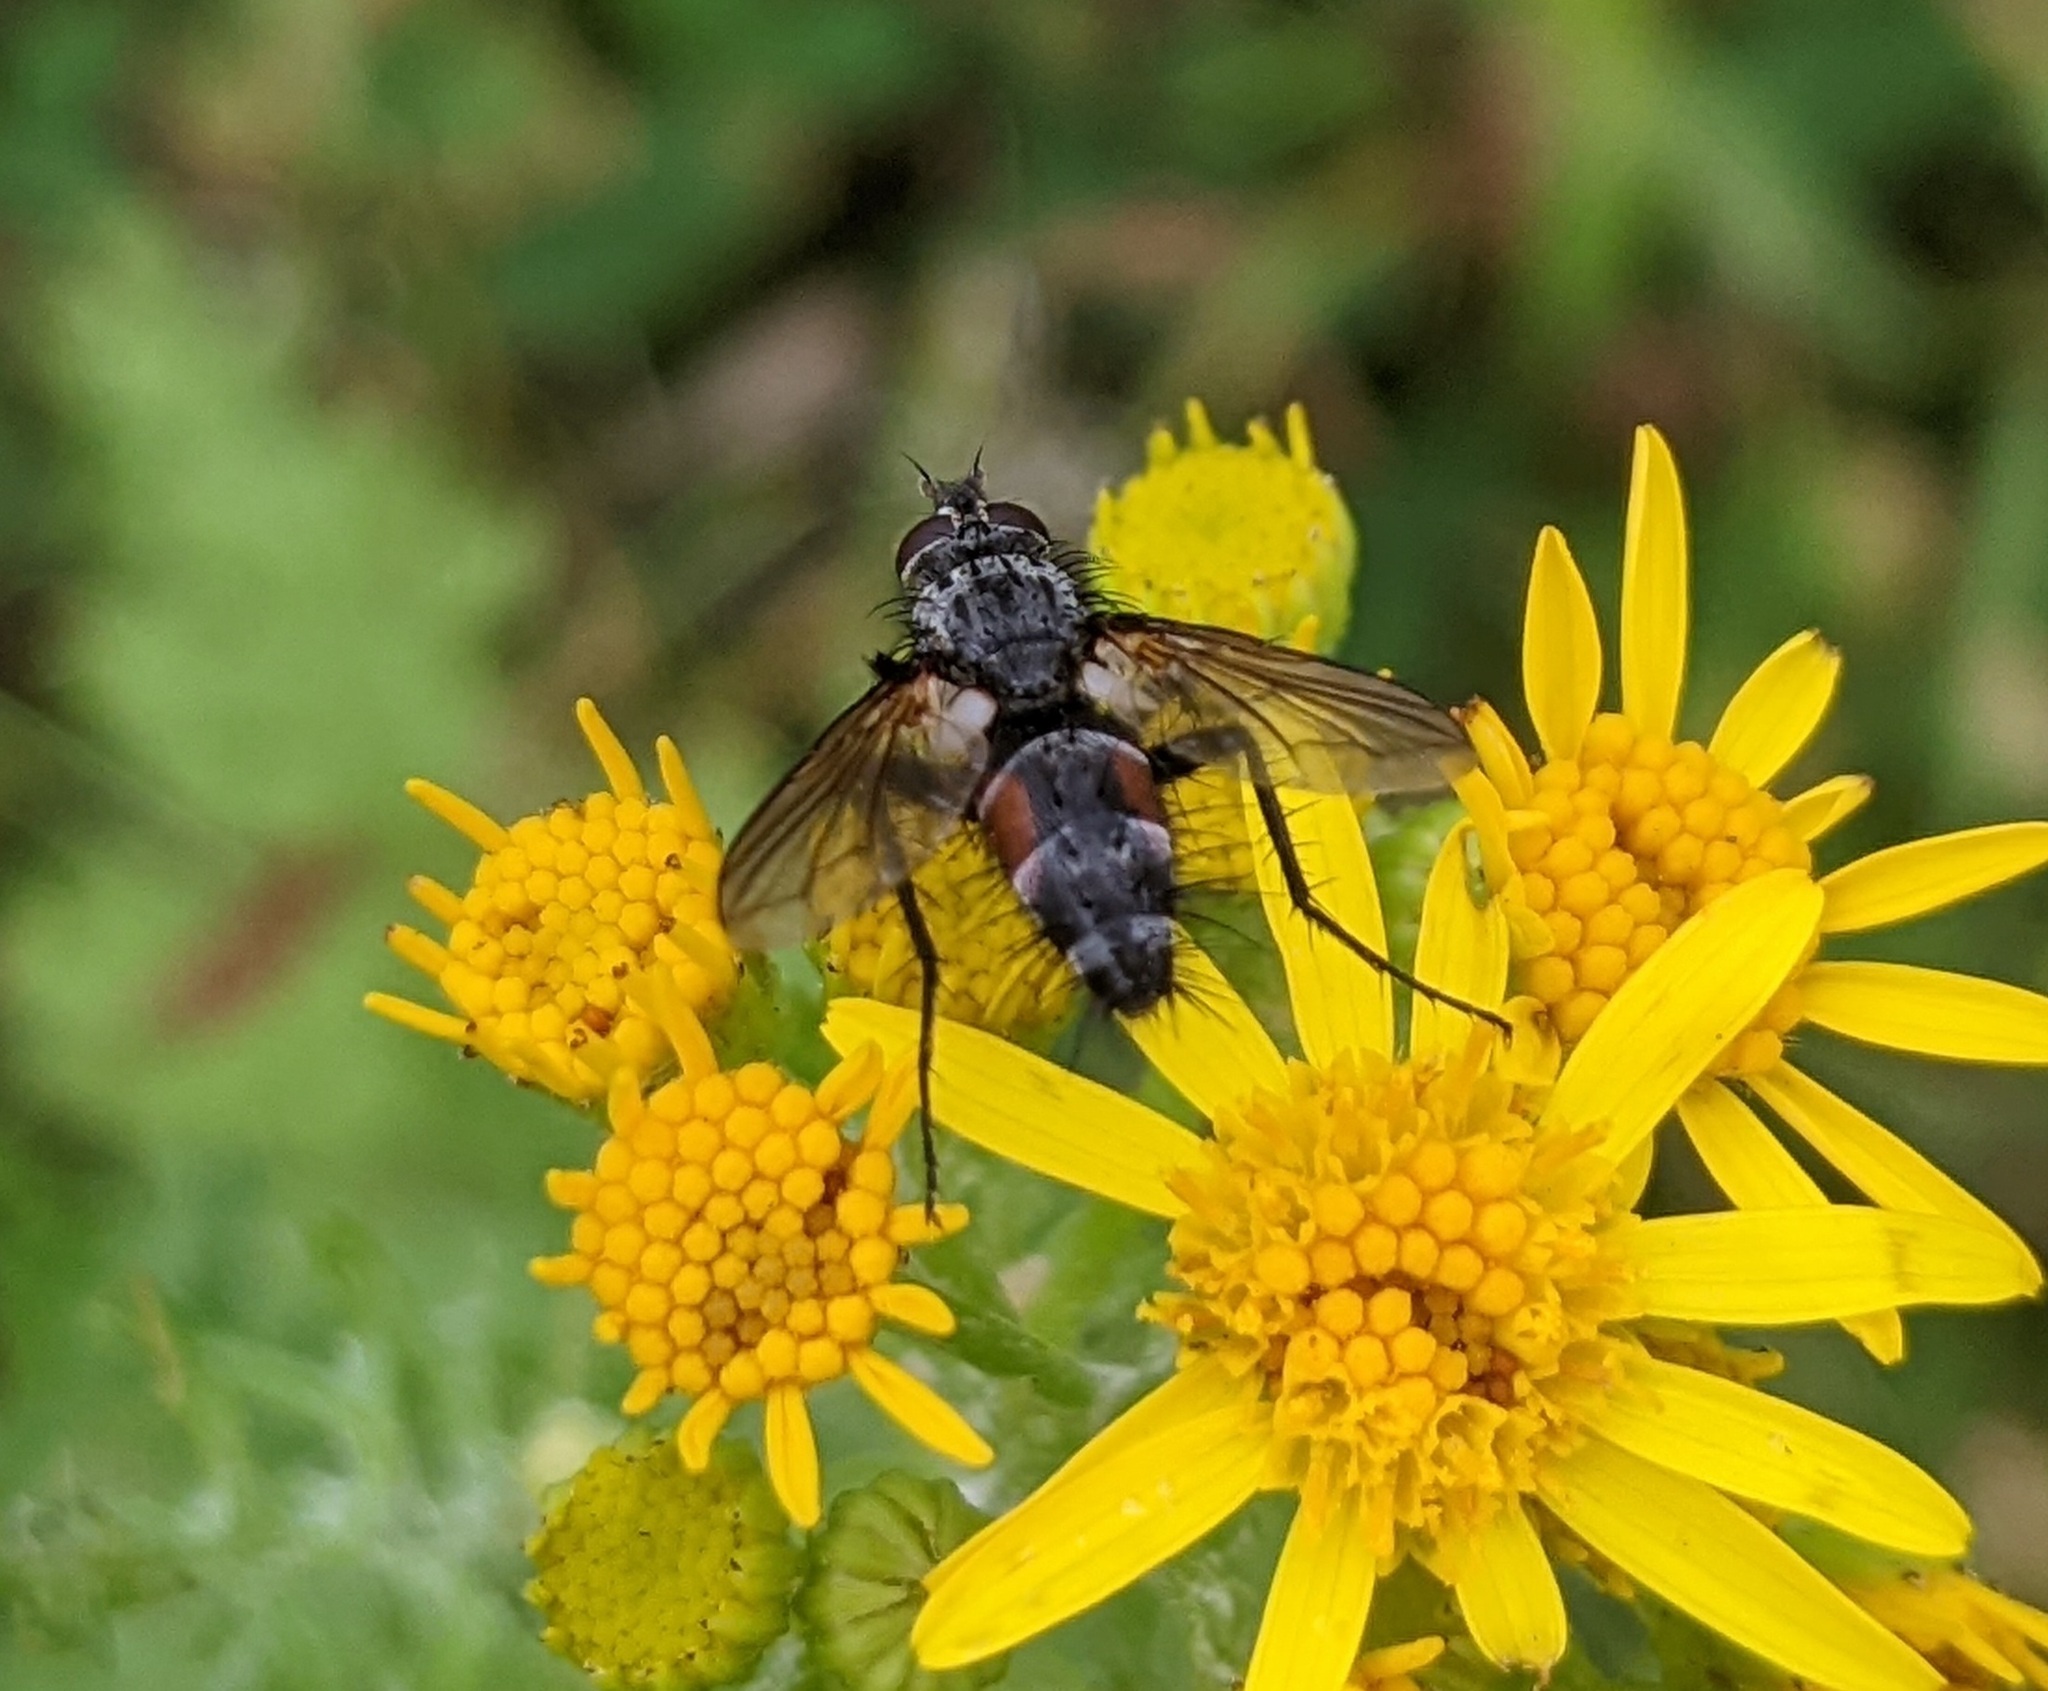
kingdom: Animalia
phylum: Arthropoda
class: Insecta
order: Diptera
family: Tachinidae
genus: Eriothrix
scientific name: Eriothrix rufomaculatus
